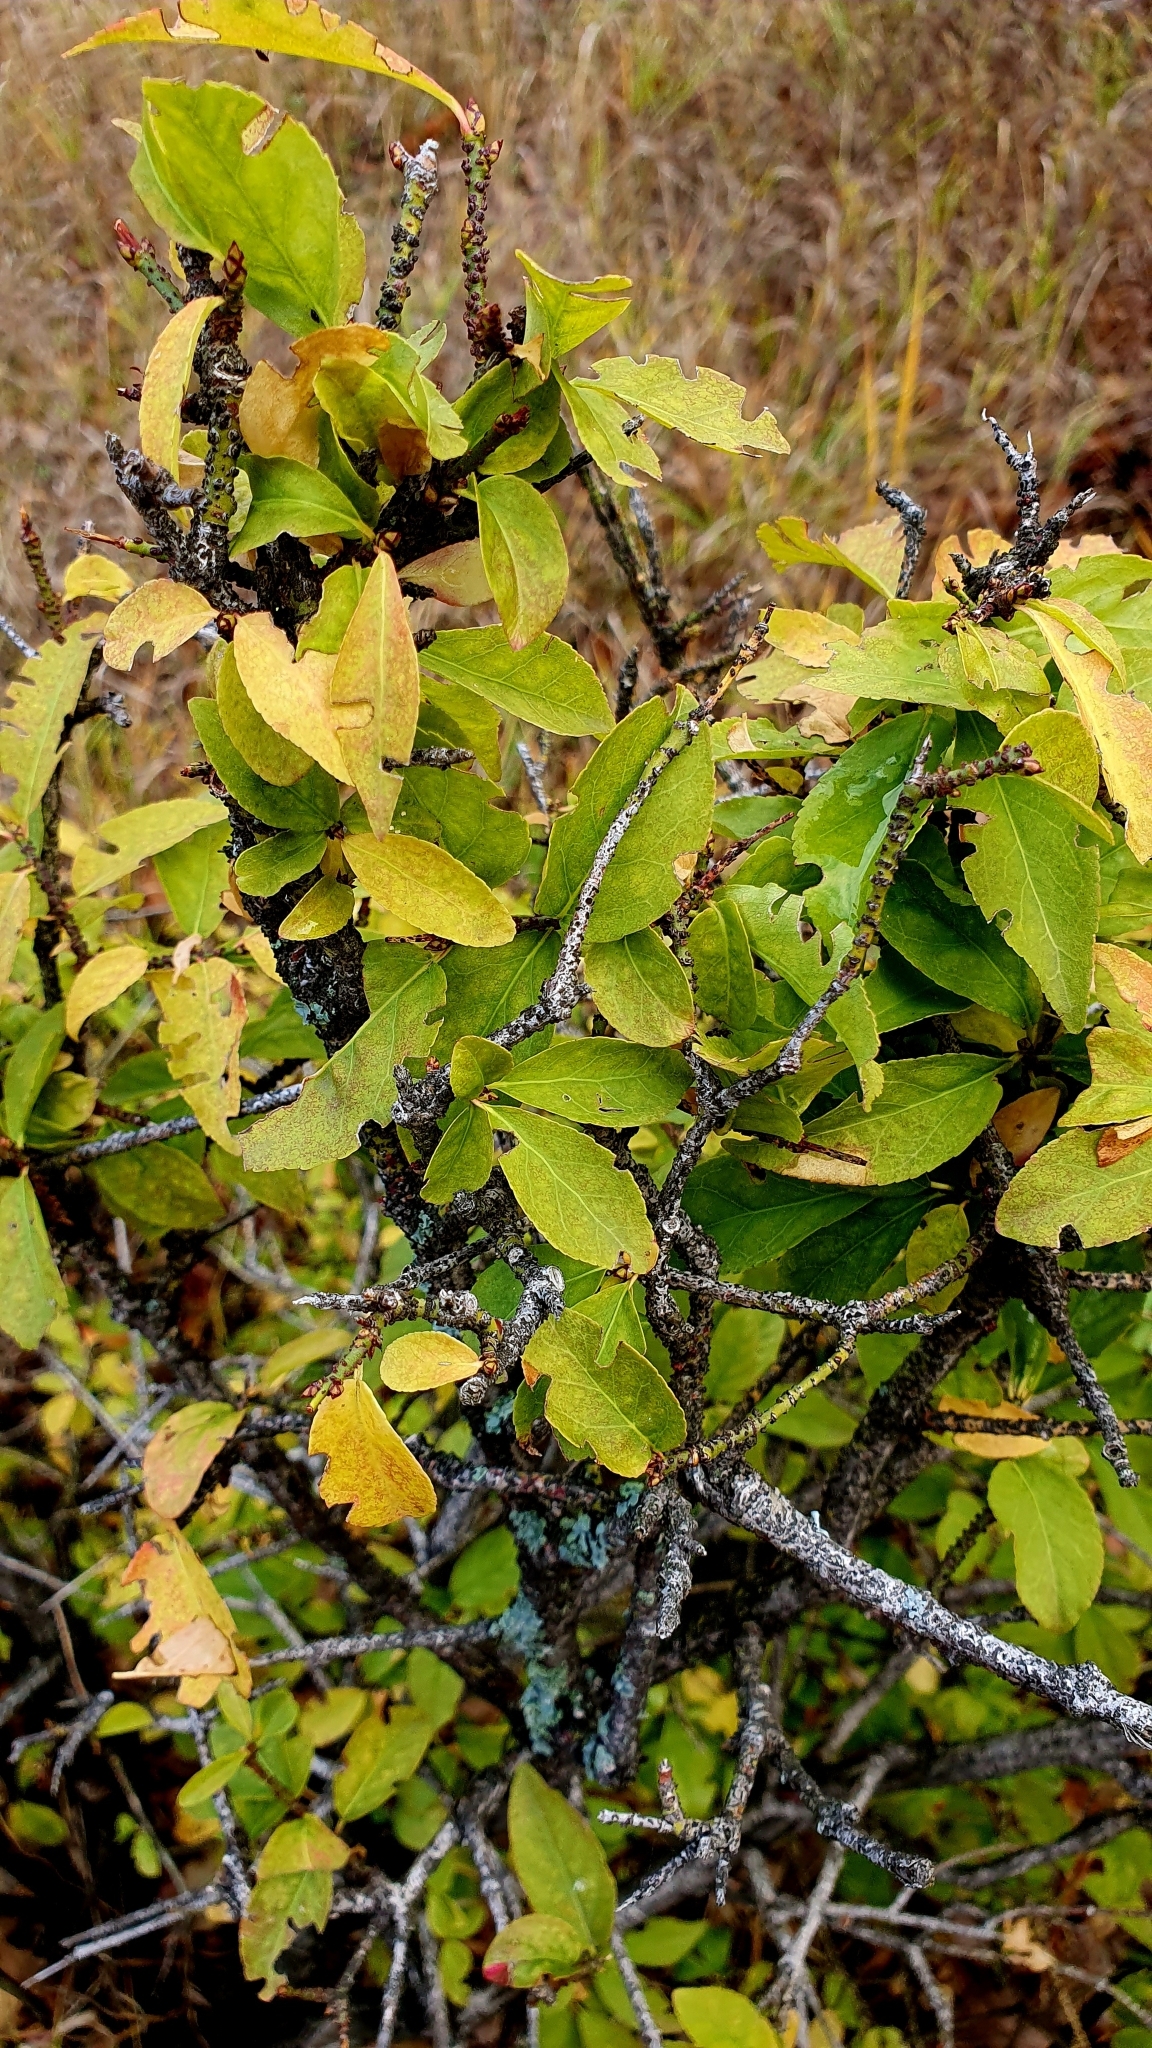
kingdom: Plantae
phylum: Tracheophyta
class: Magnoliopsida
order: Celastrales
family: Celastraceae
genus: Euonymus
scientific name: Euonymus verrucosus
